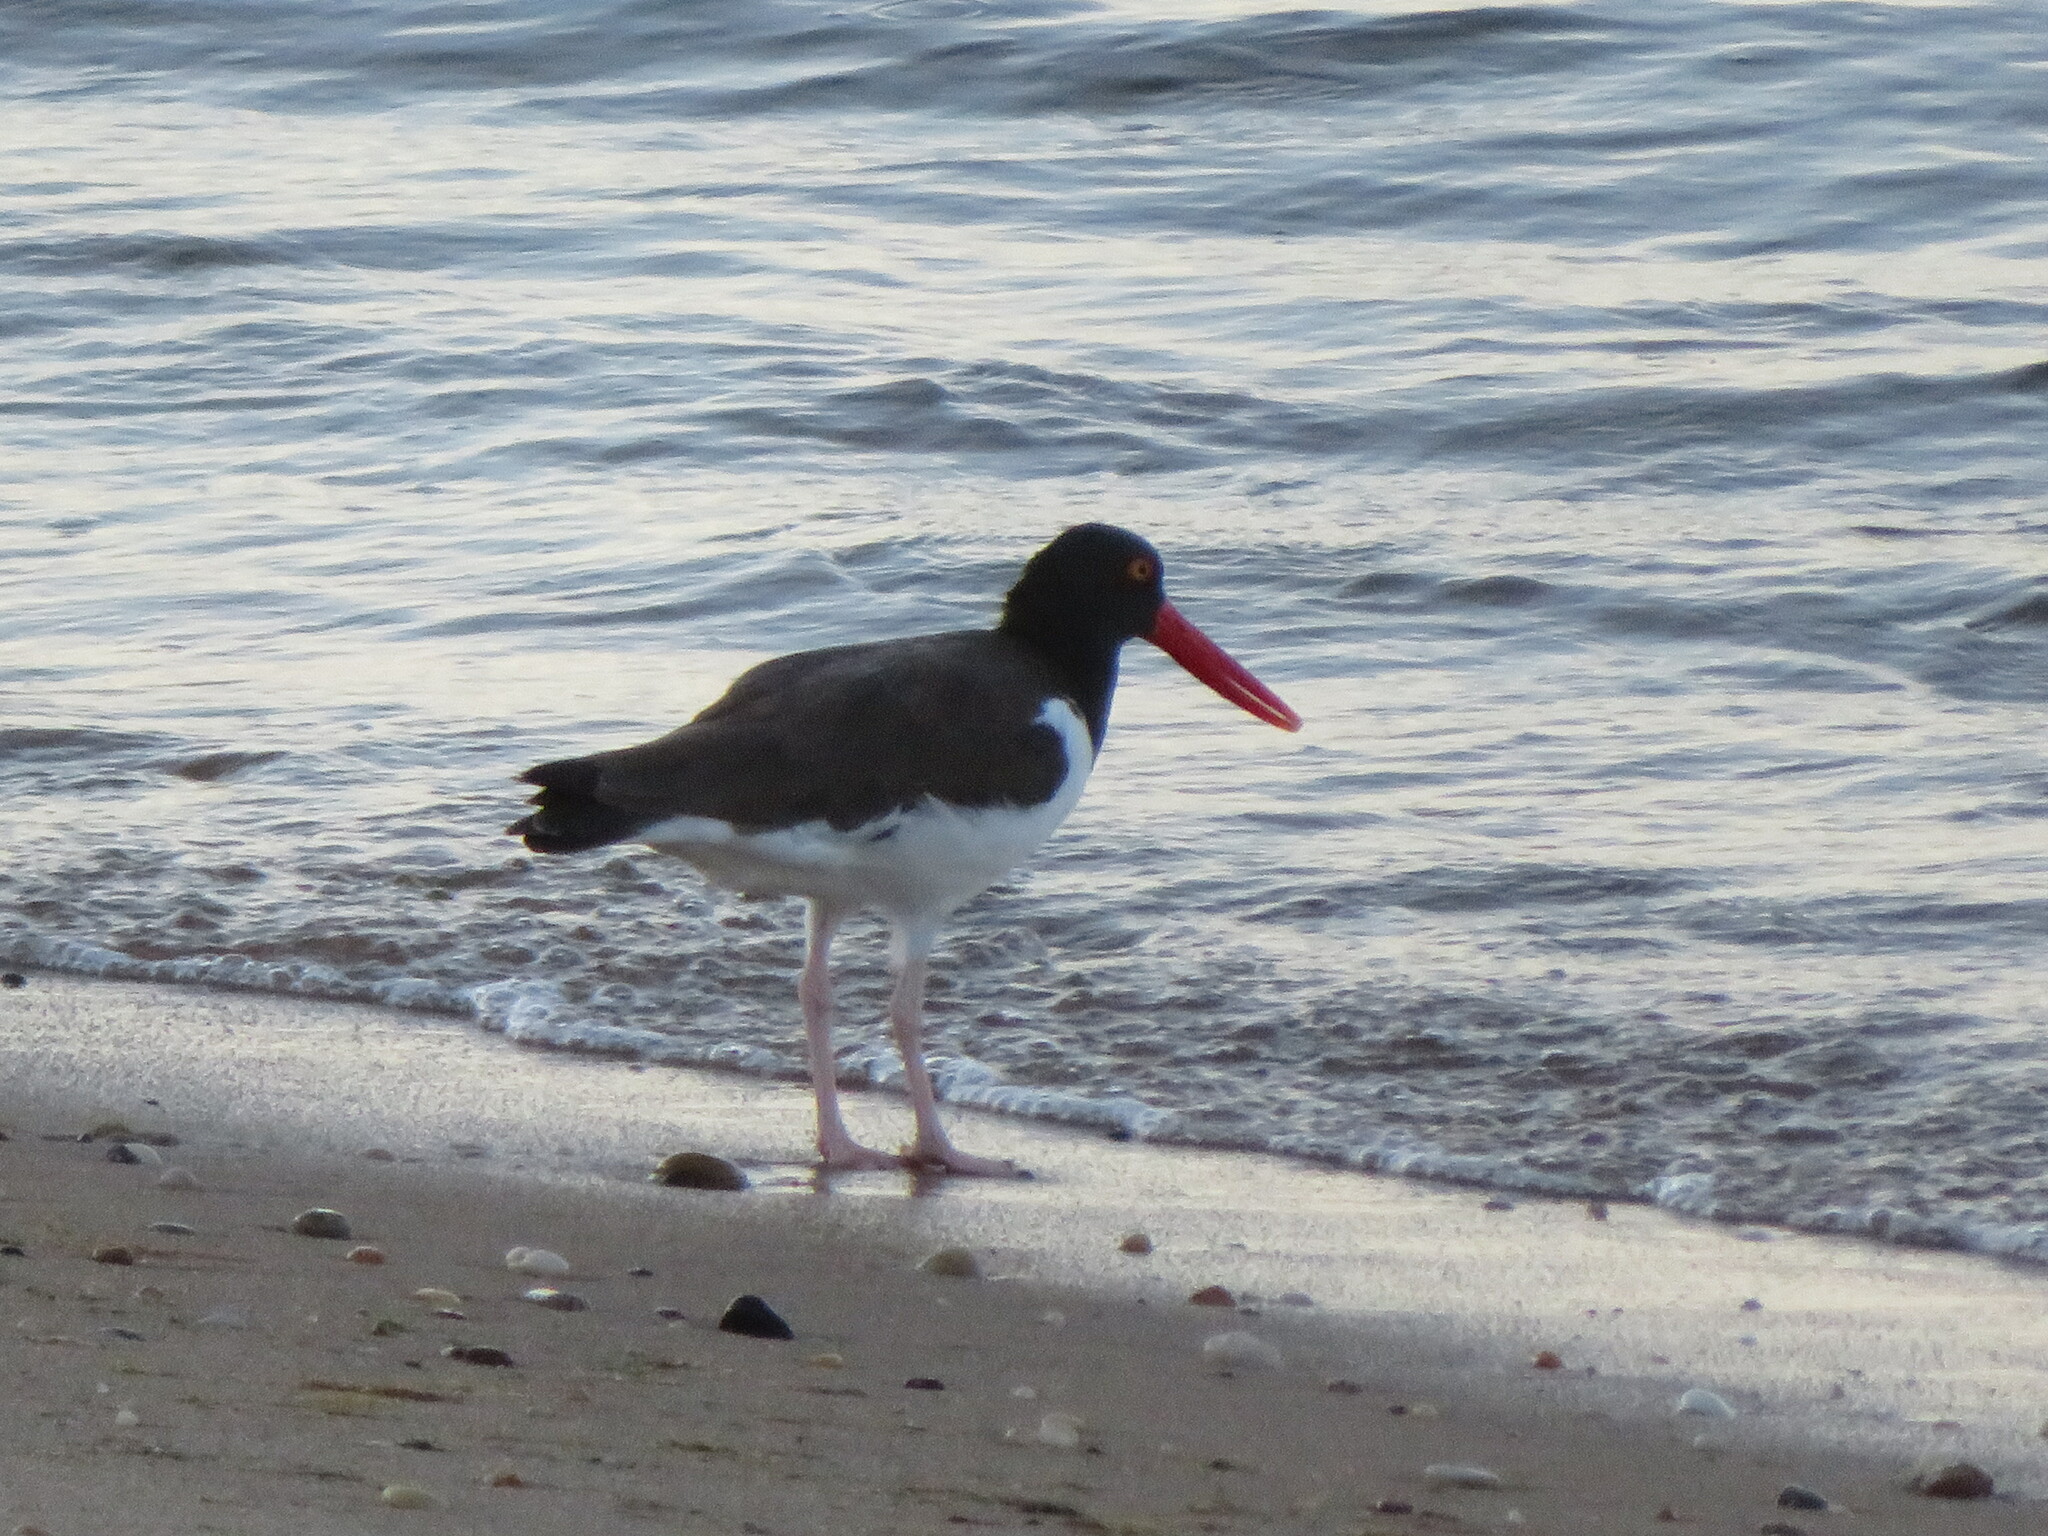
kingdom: Animalia
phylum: Chordata
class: Aves
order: Charadriiformes
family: Haematopodidae
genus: Haematopus
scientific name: Haematopus palliatus
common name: American oystercatcher
